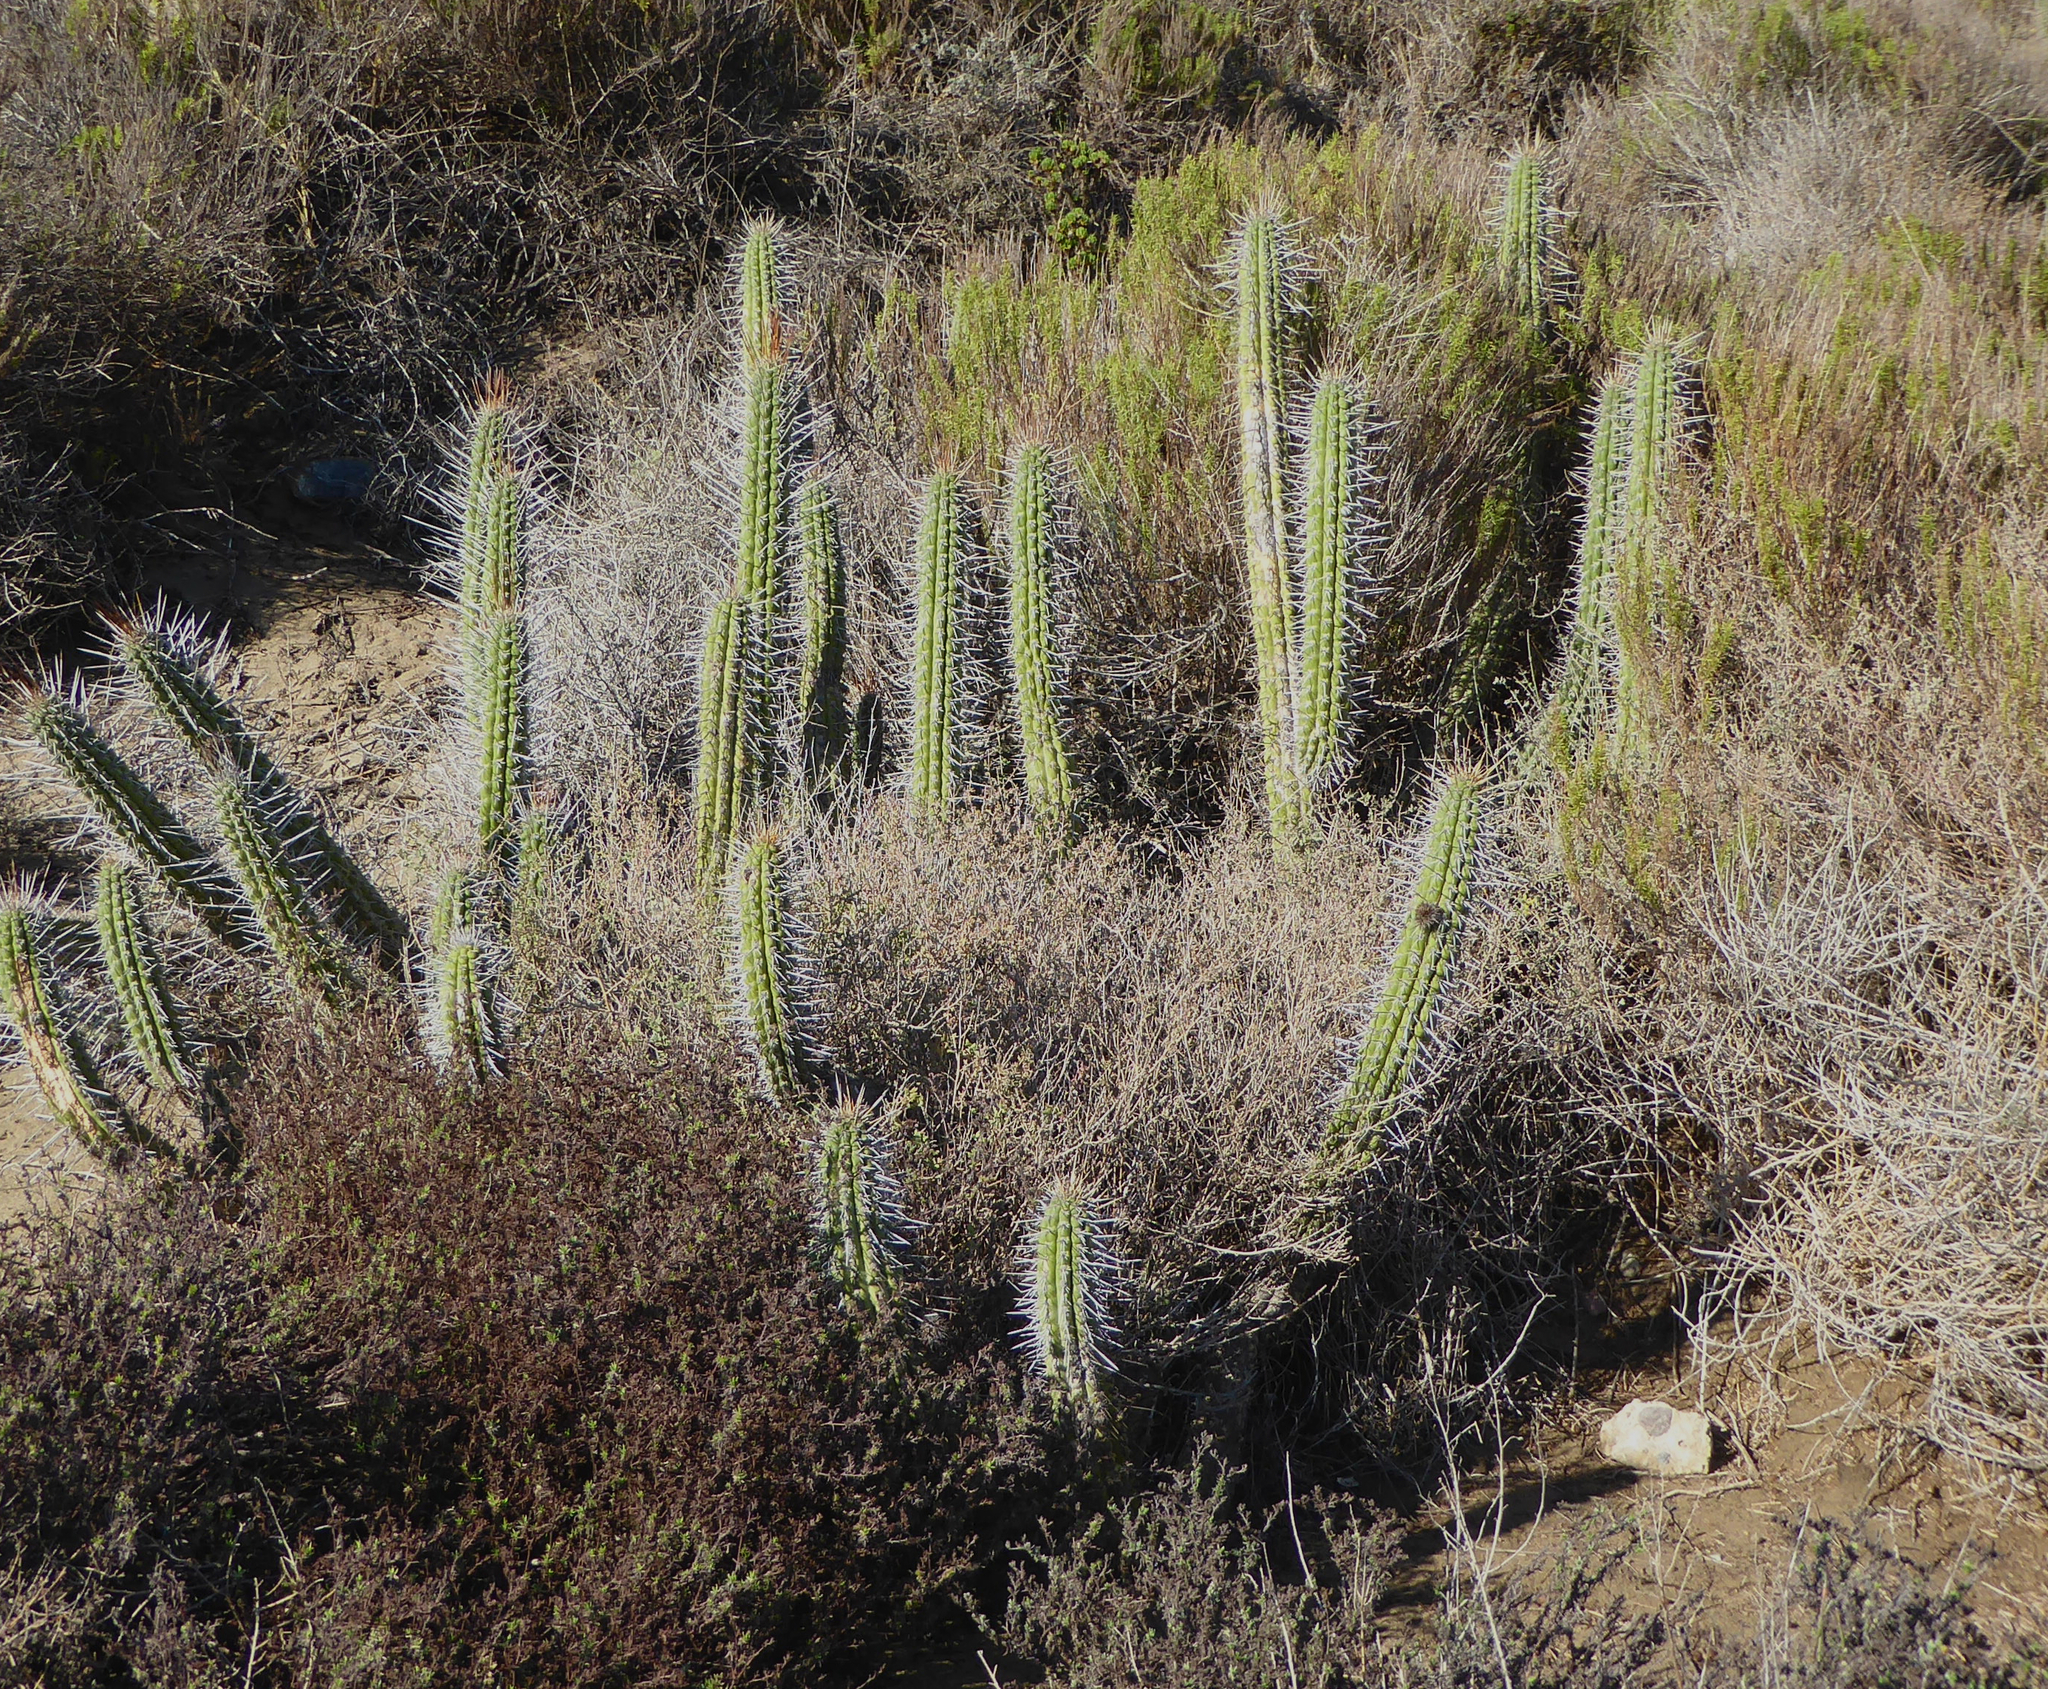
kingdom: Plantae
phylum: Tracheophyta
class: Magnoliopsida
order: Caryophyllales
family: Cactaceae
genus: Leucostele
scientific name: Leucostele chiloensis
